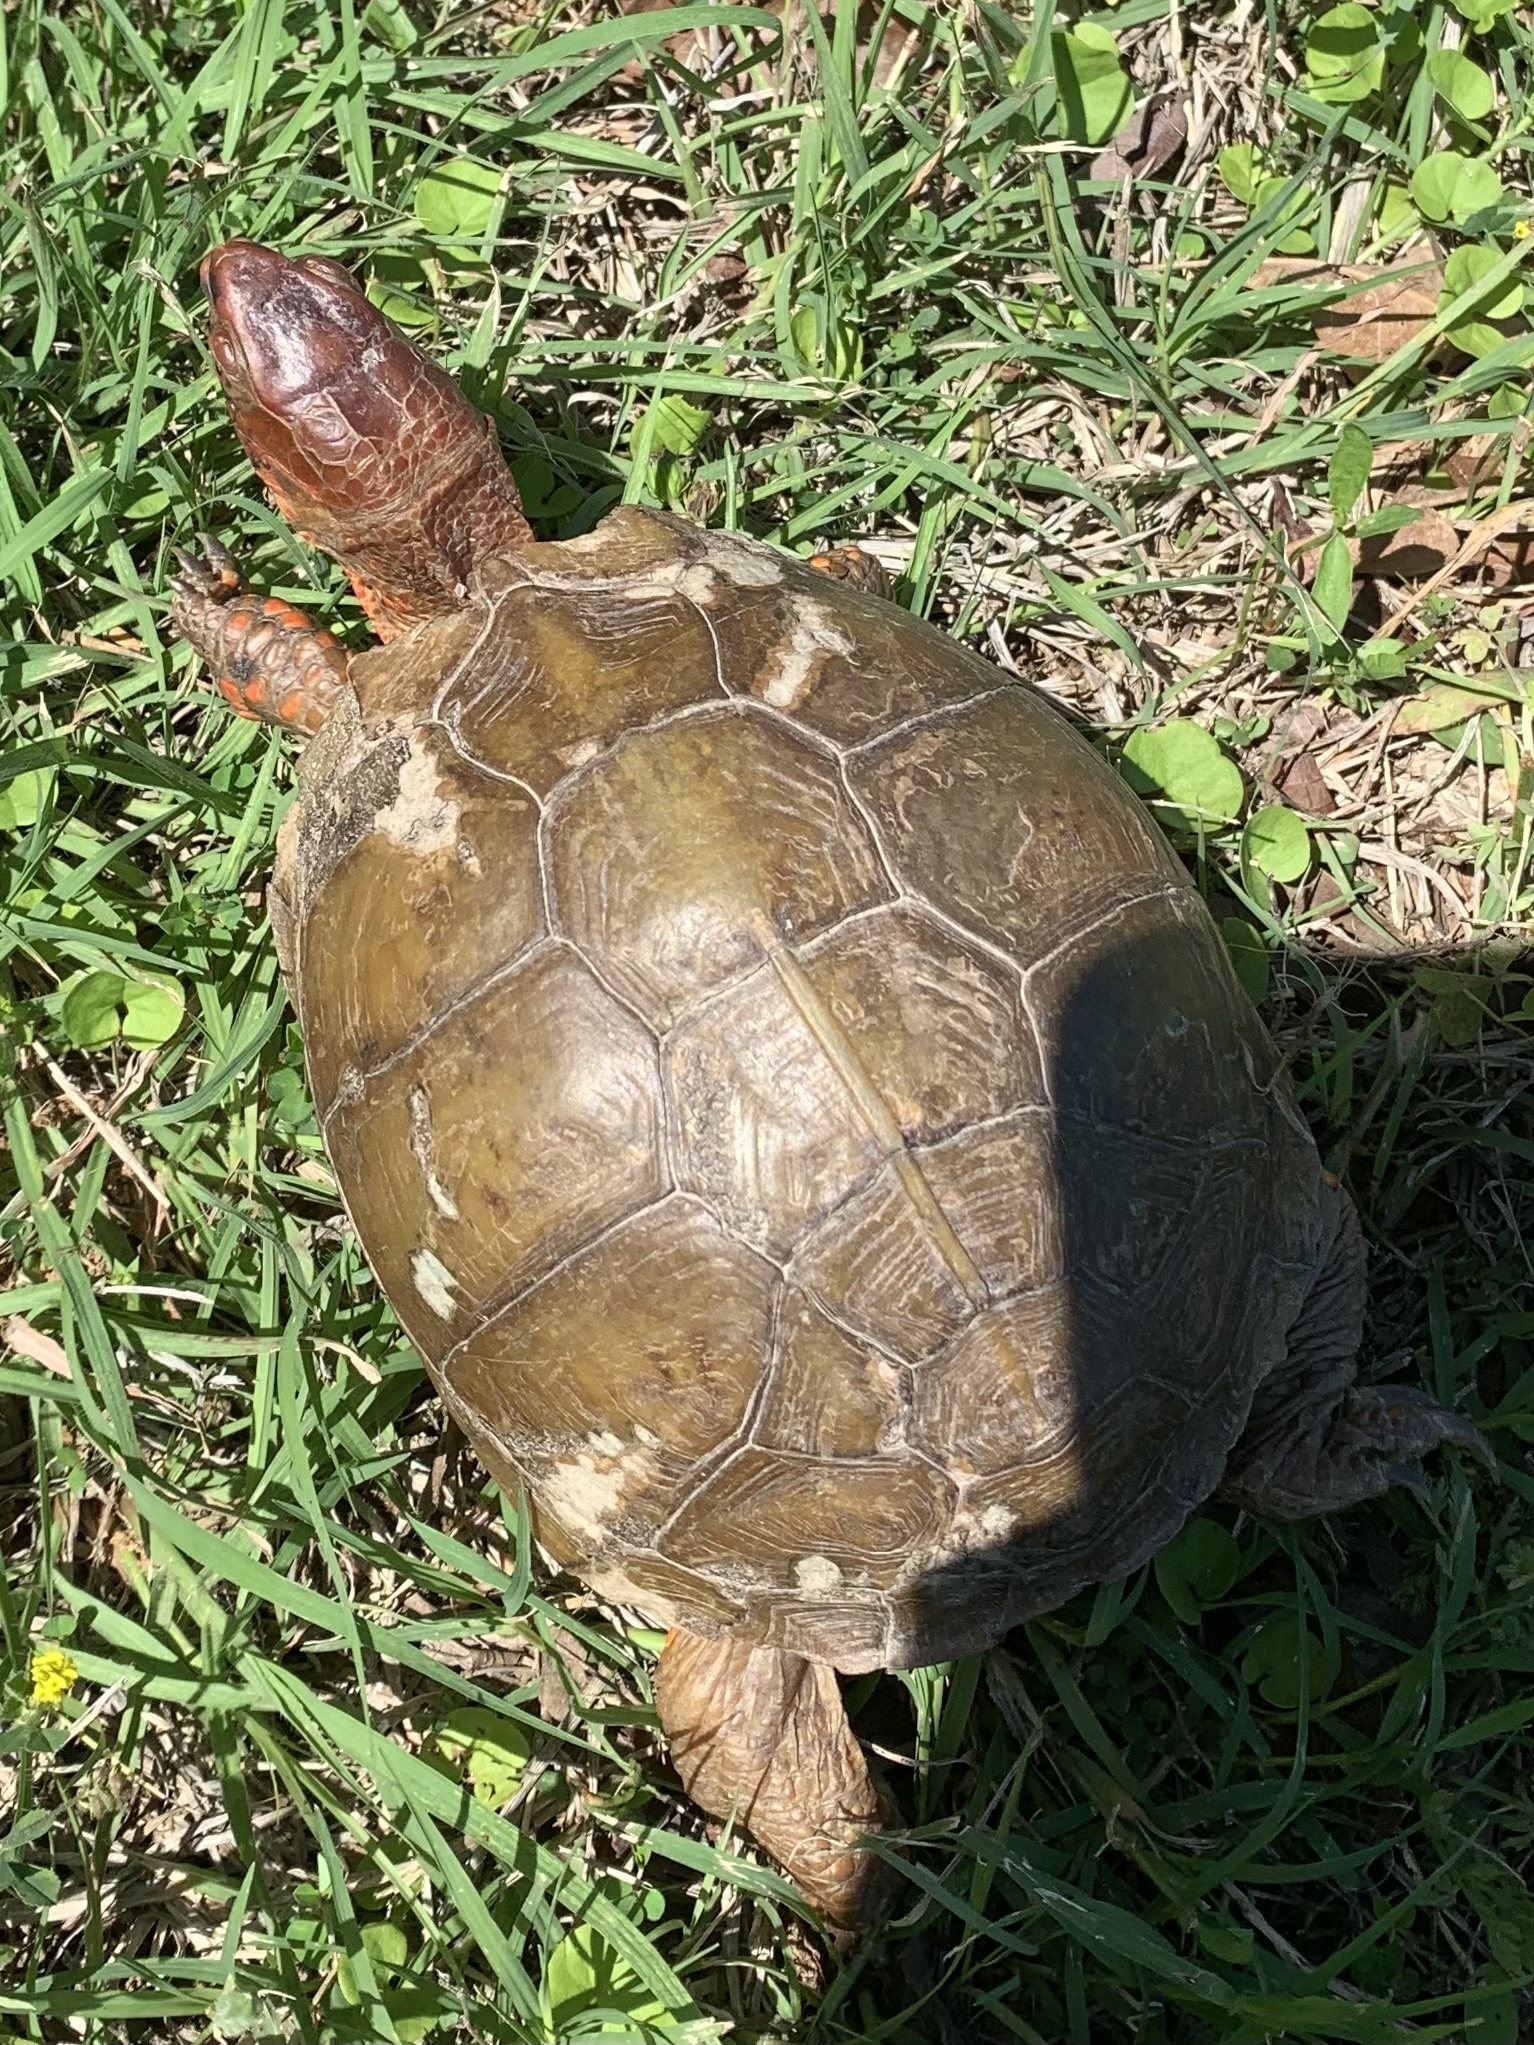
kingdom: Animalia
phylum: Chordata
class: Testudines
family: Emydidae
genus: Terrapene
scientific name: Terrapene carolina
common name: Common box turtle
